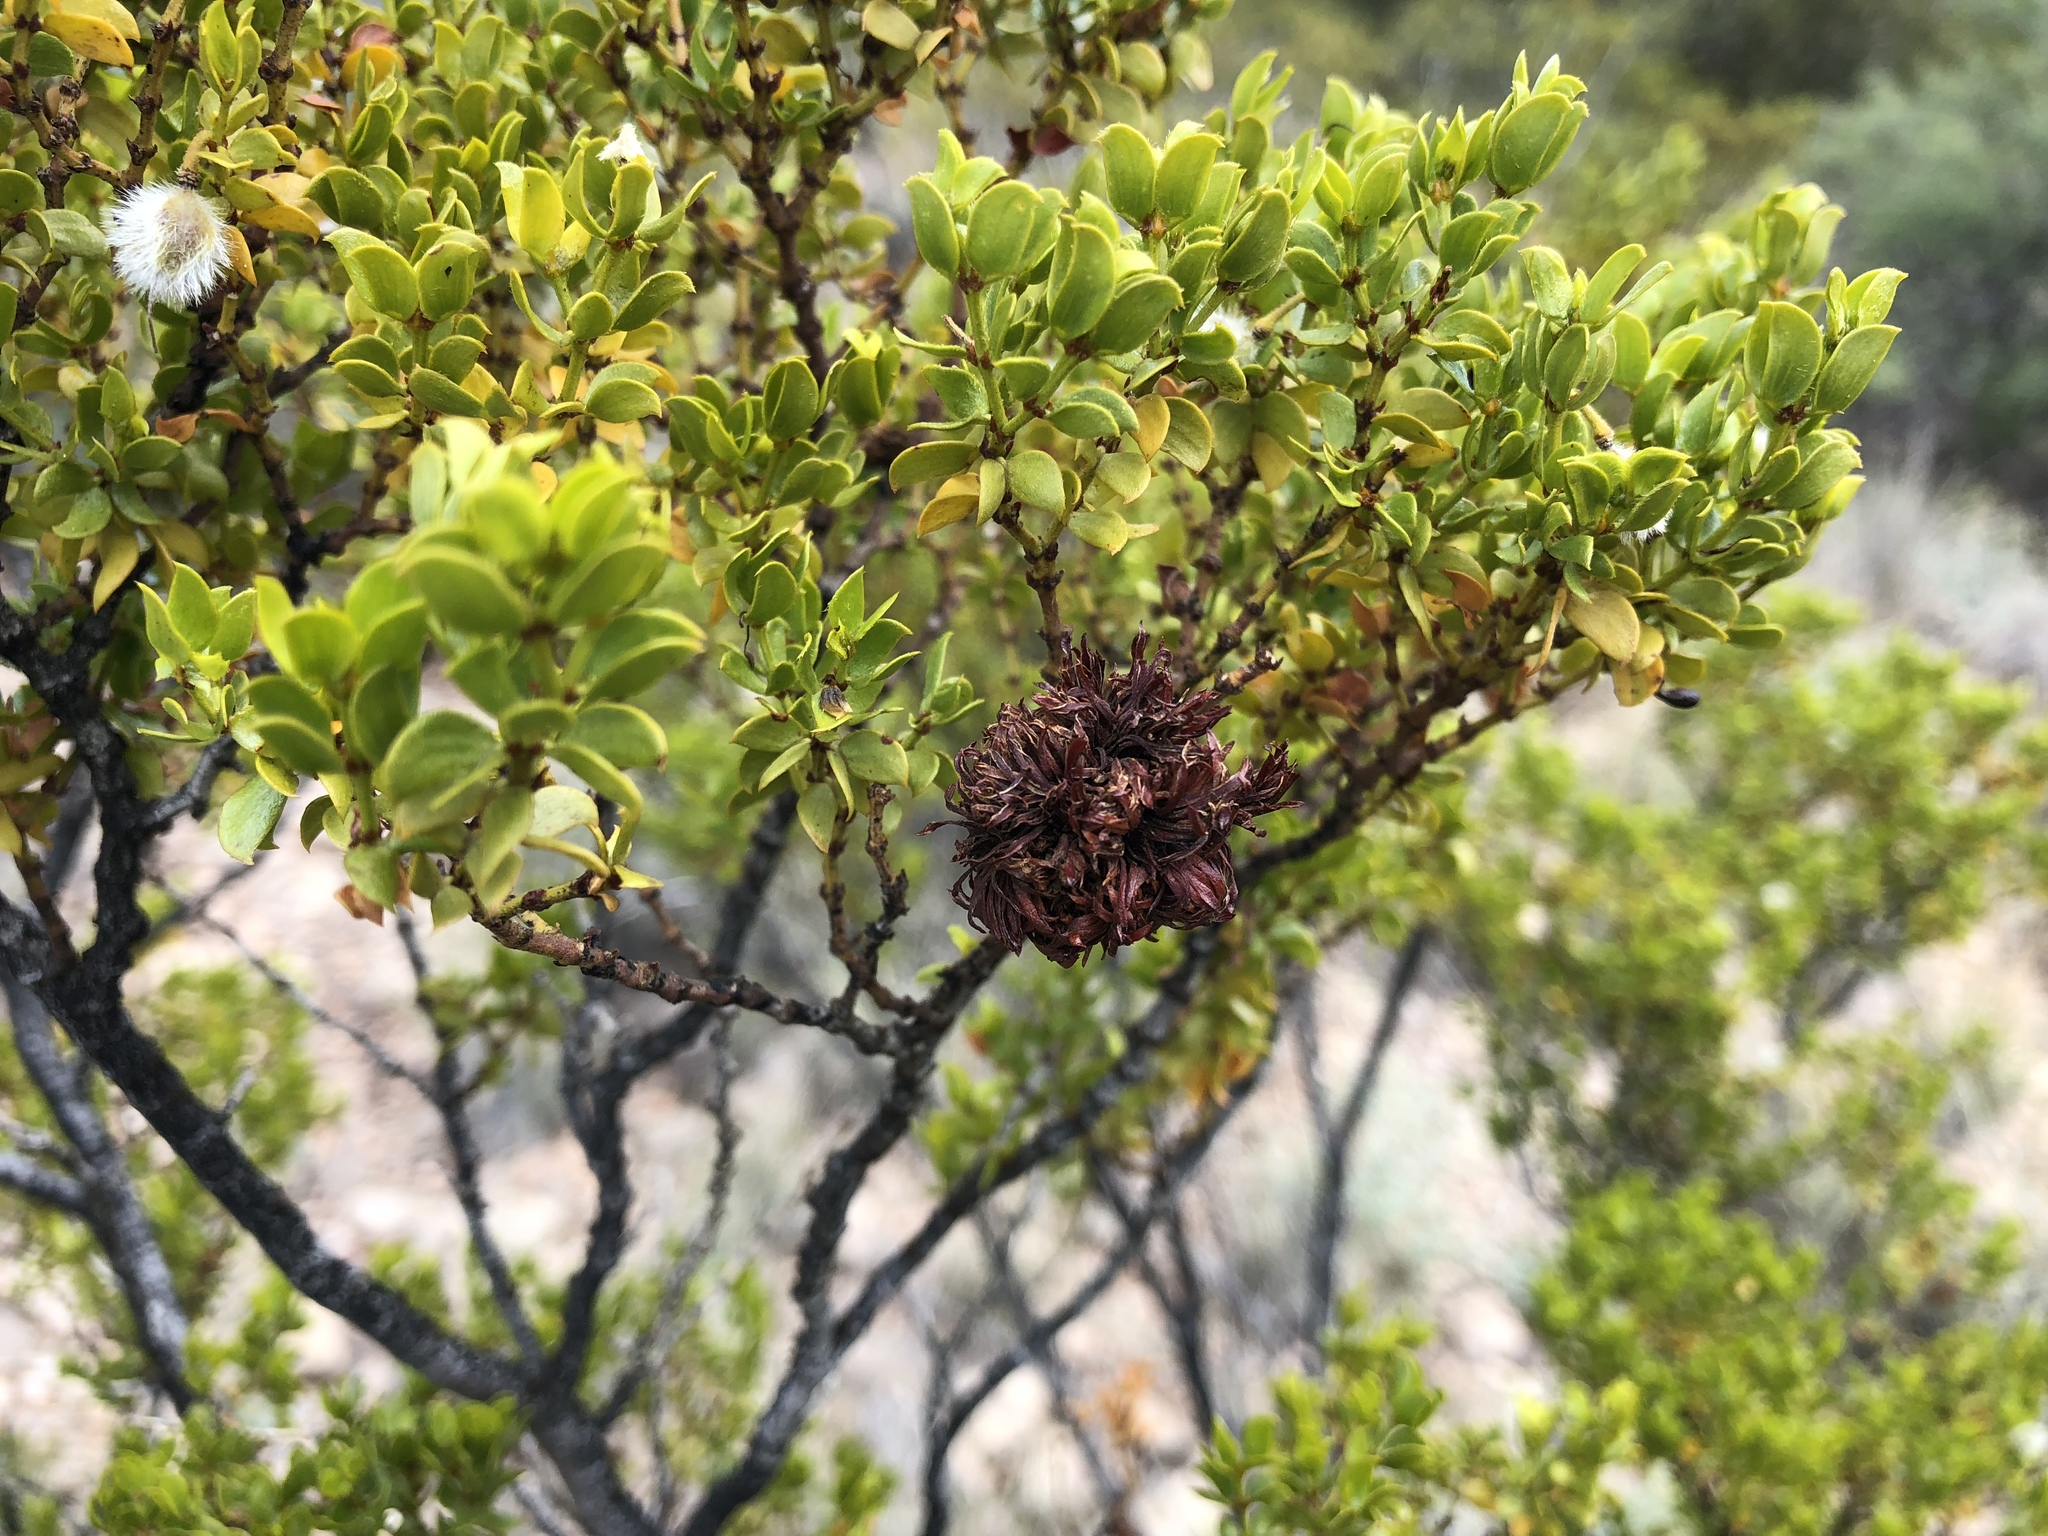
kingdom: Animalia
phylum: Arthropoda
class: Insecta
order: Diptera
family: Cecidomyiidae
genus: Asphondylia
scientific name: Asphondylia auripila
